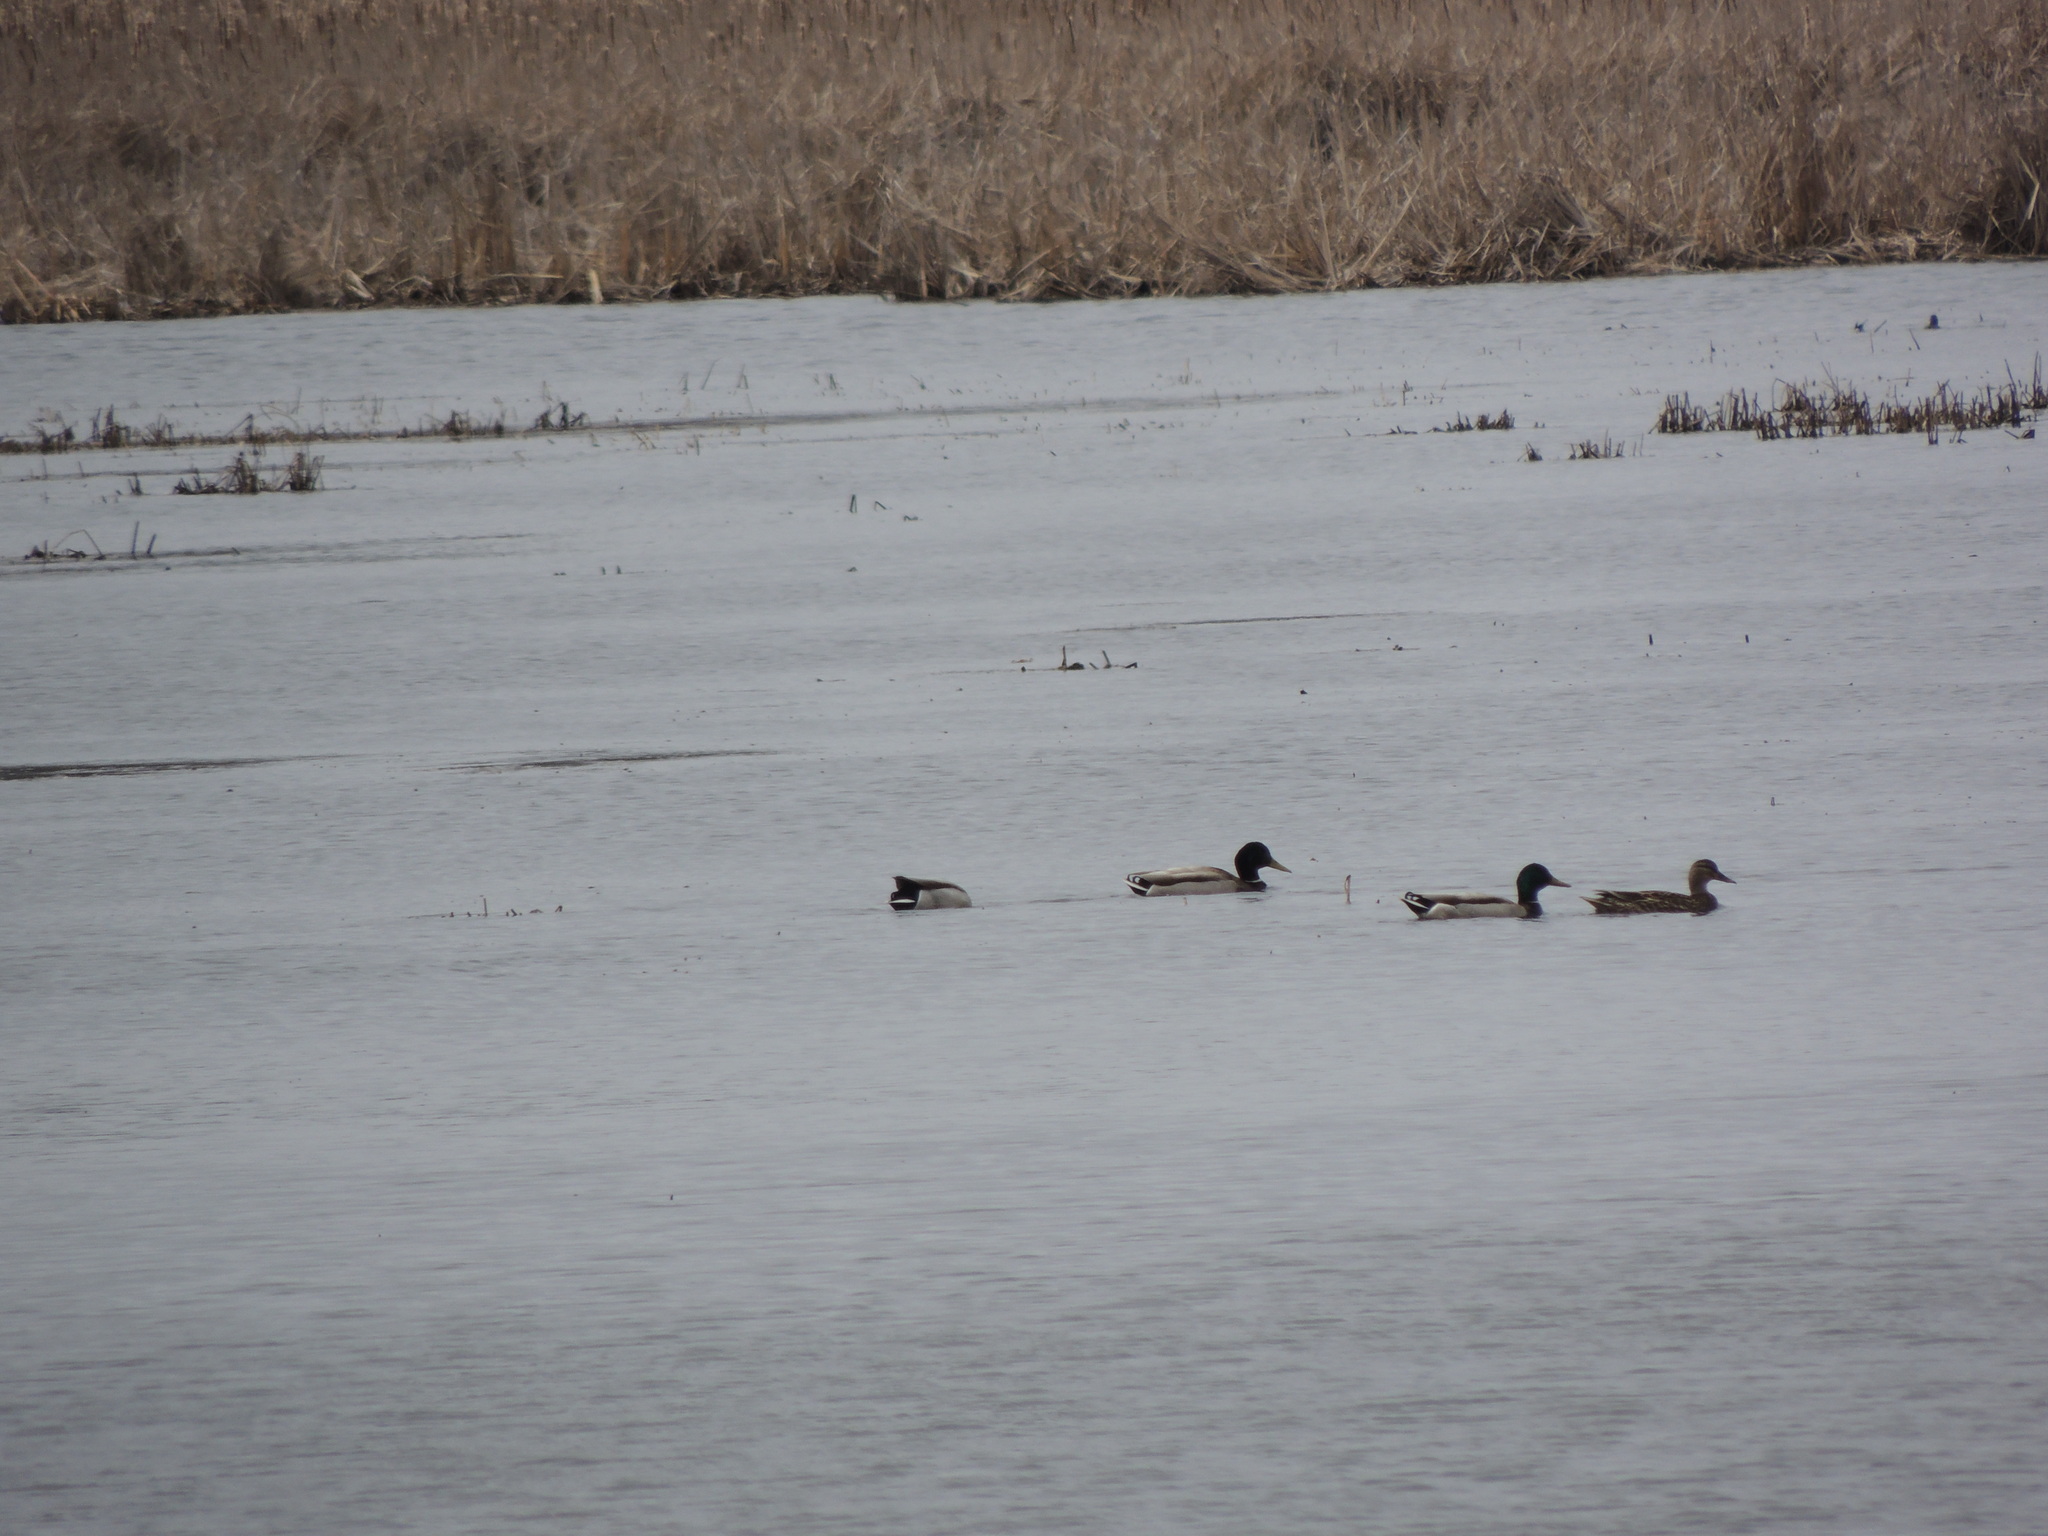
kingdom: Animalia
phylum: Chordata
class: Aves
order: Anseriformes
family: Anatidae
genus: Anas
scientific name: Anas platyrhynchos
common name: Mallard
